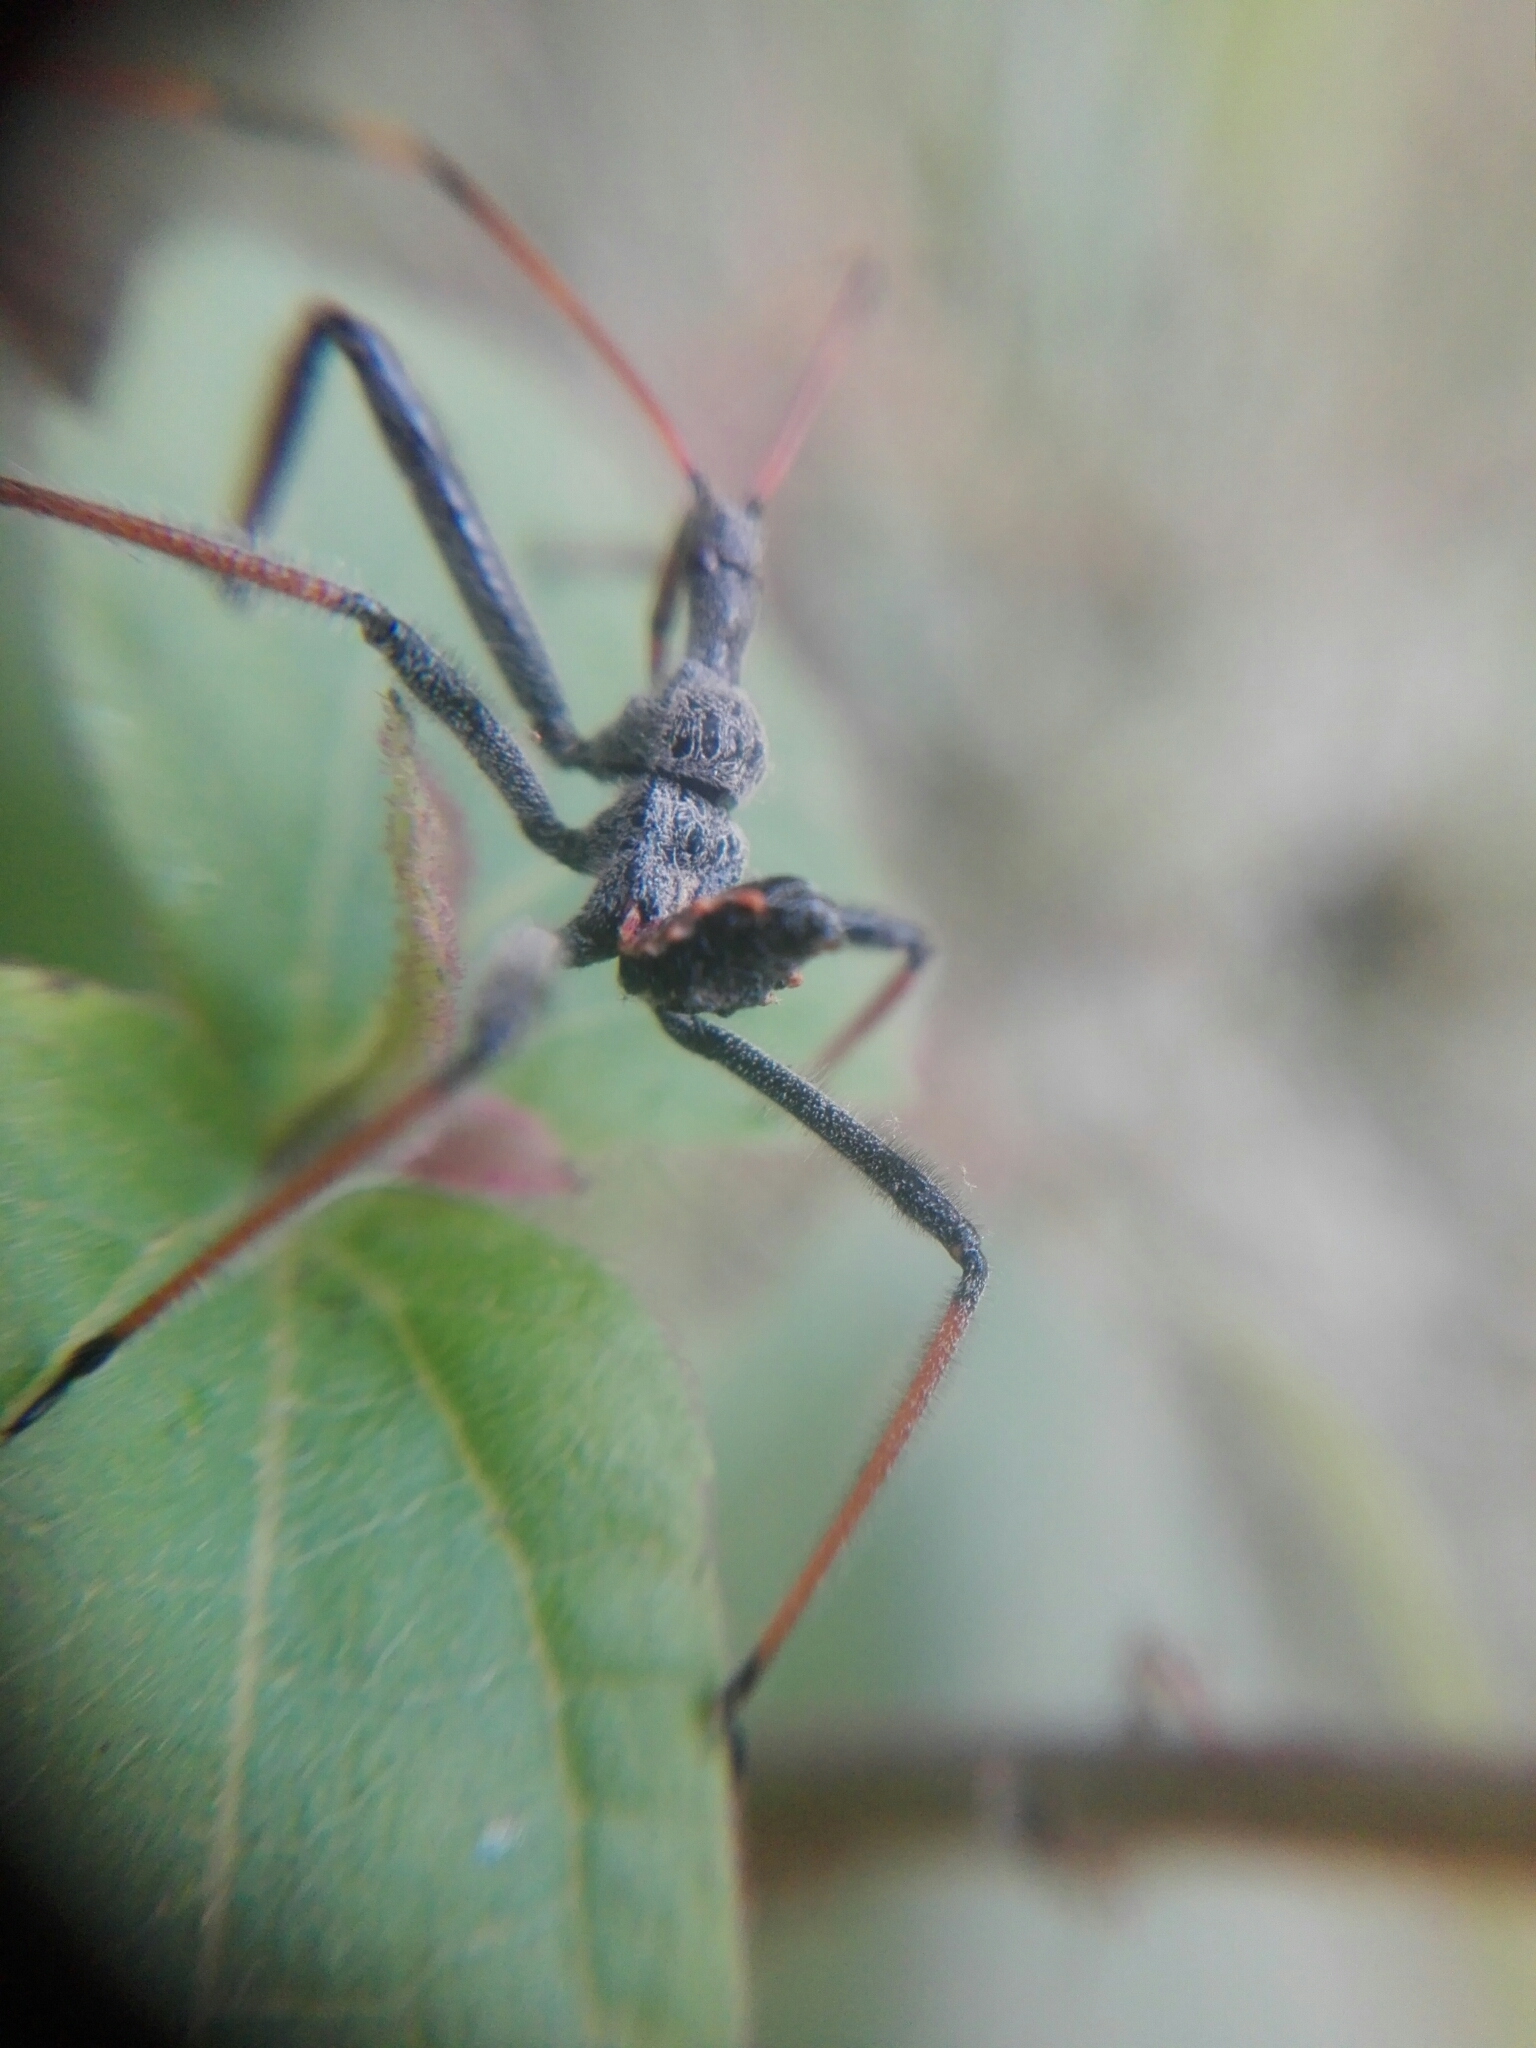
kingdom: Animalia
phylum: Arthropoda
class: Insecta
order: Hemiptera
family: Reduviidae
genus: Arilus
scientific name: Arilus cristatus
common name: North american wheel bug
